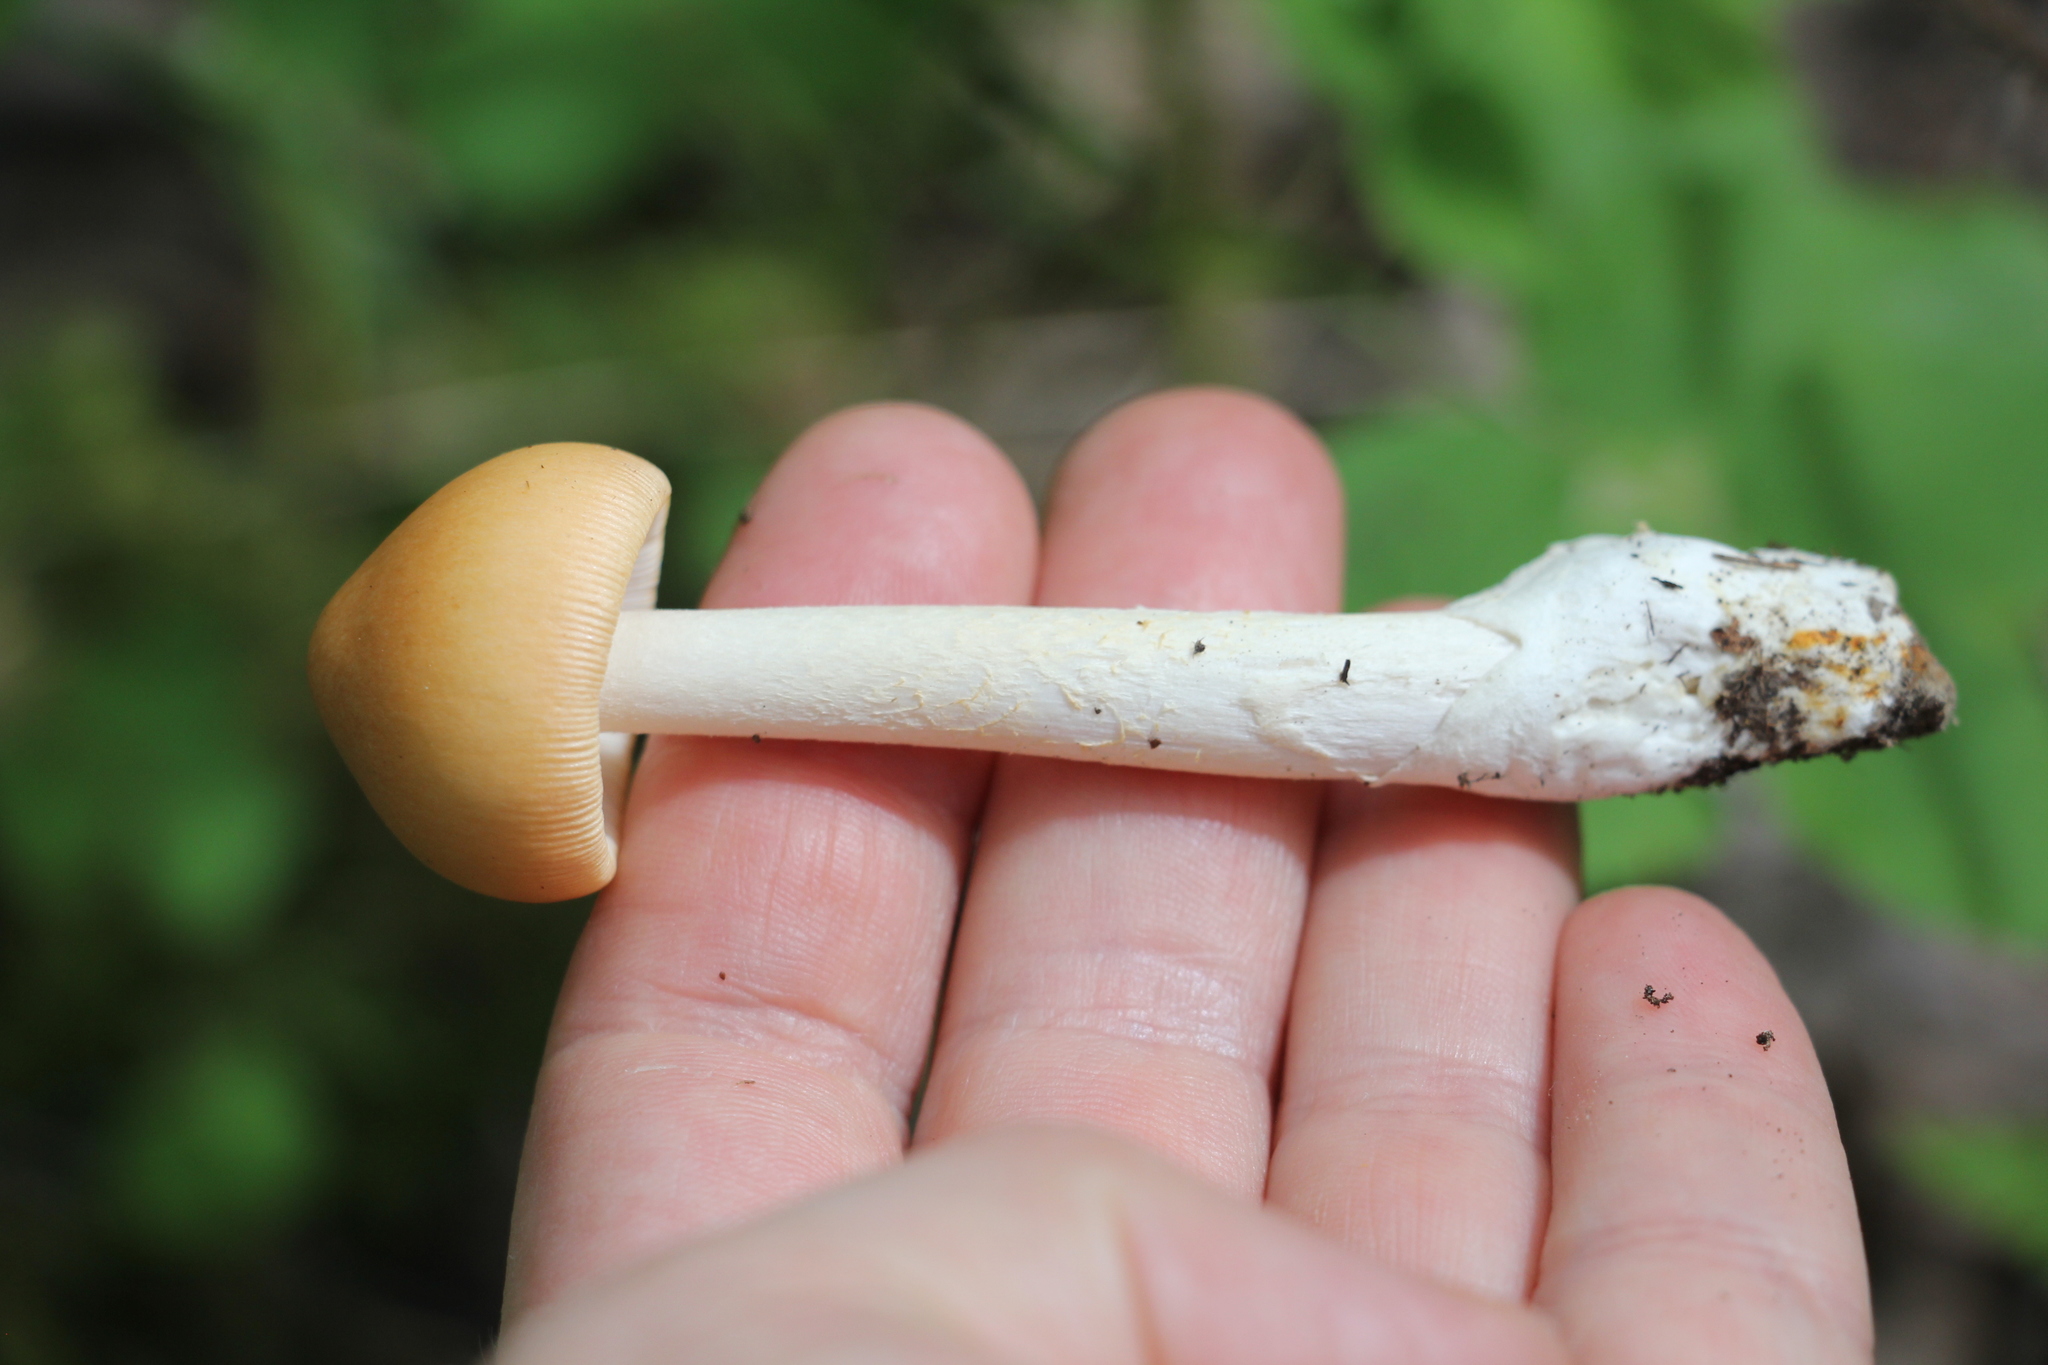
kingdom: Fungi
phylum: Basidiomycota
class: Agaricomycetes
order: Agaricales
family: Amanitaceae
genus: Amanita
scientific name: Amanita crocea
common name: Orange grisette
